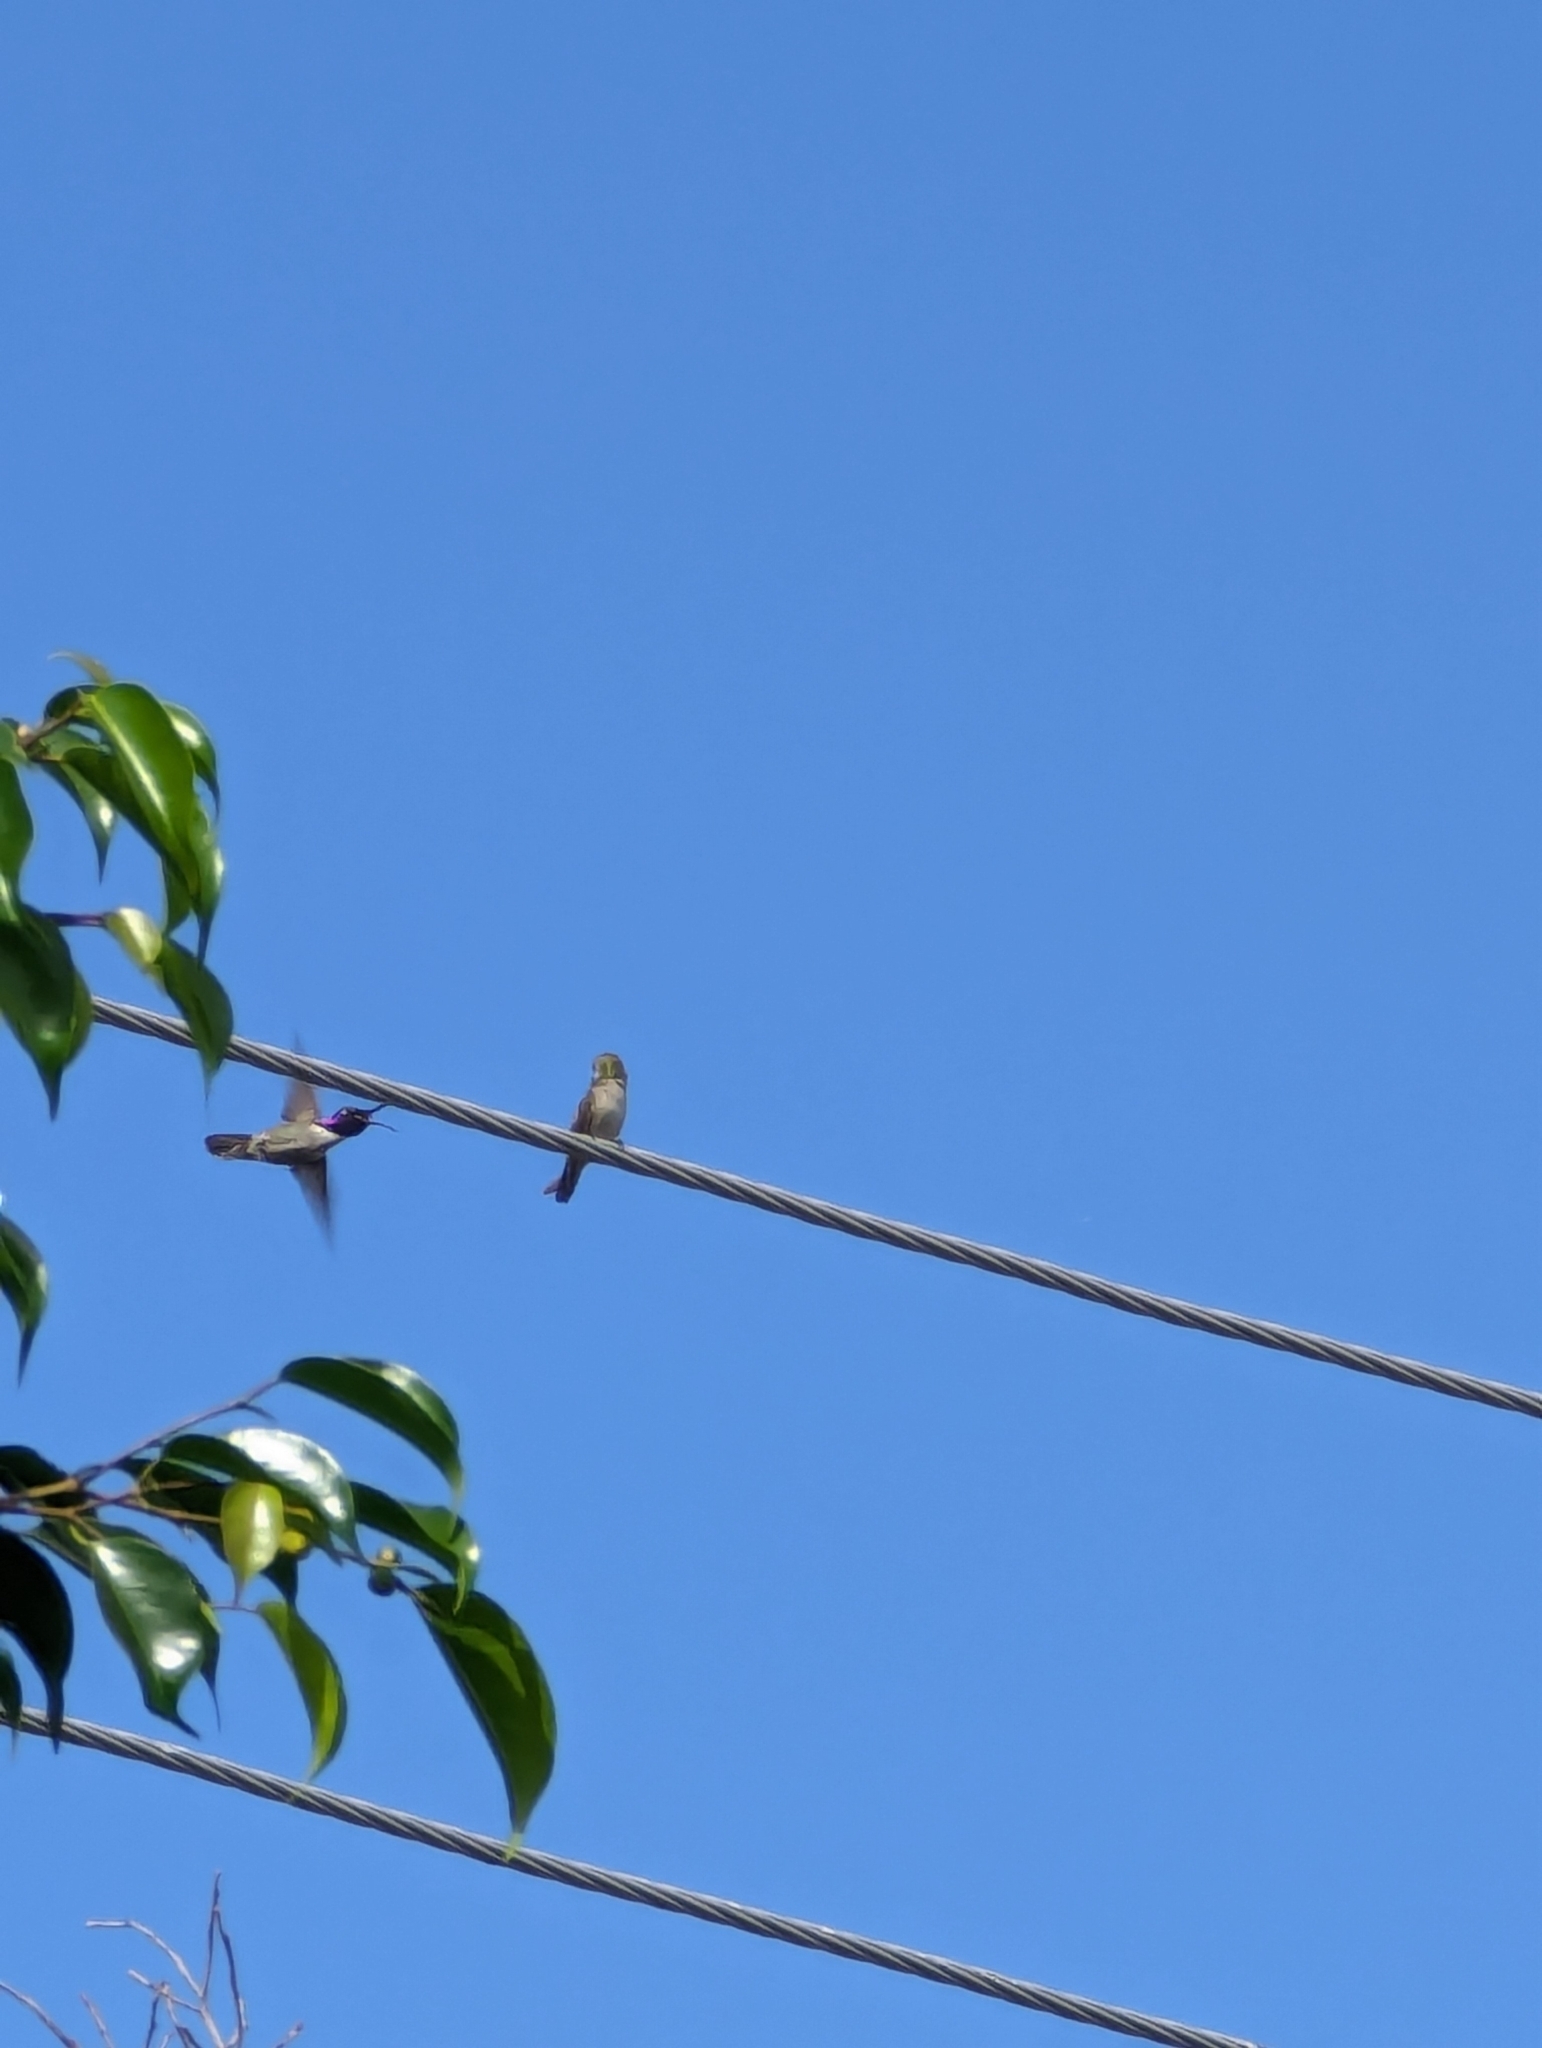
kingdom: Animalia
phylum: Chordata
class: Aves
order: Apodiformes
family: Trochilidae
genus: Calypte
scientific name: Calypte costae
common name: Costa's hummingbird
